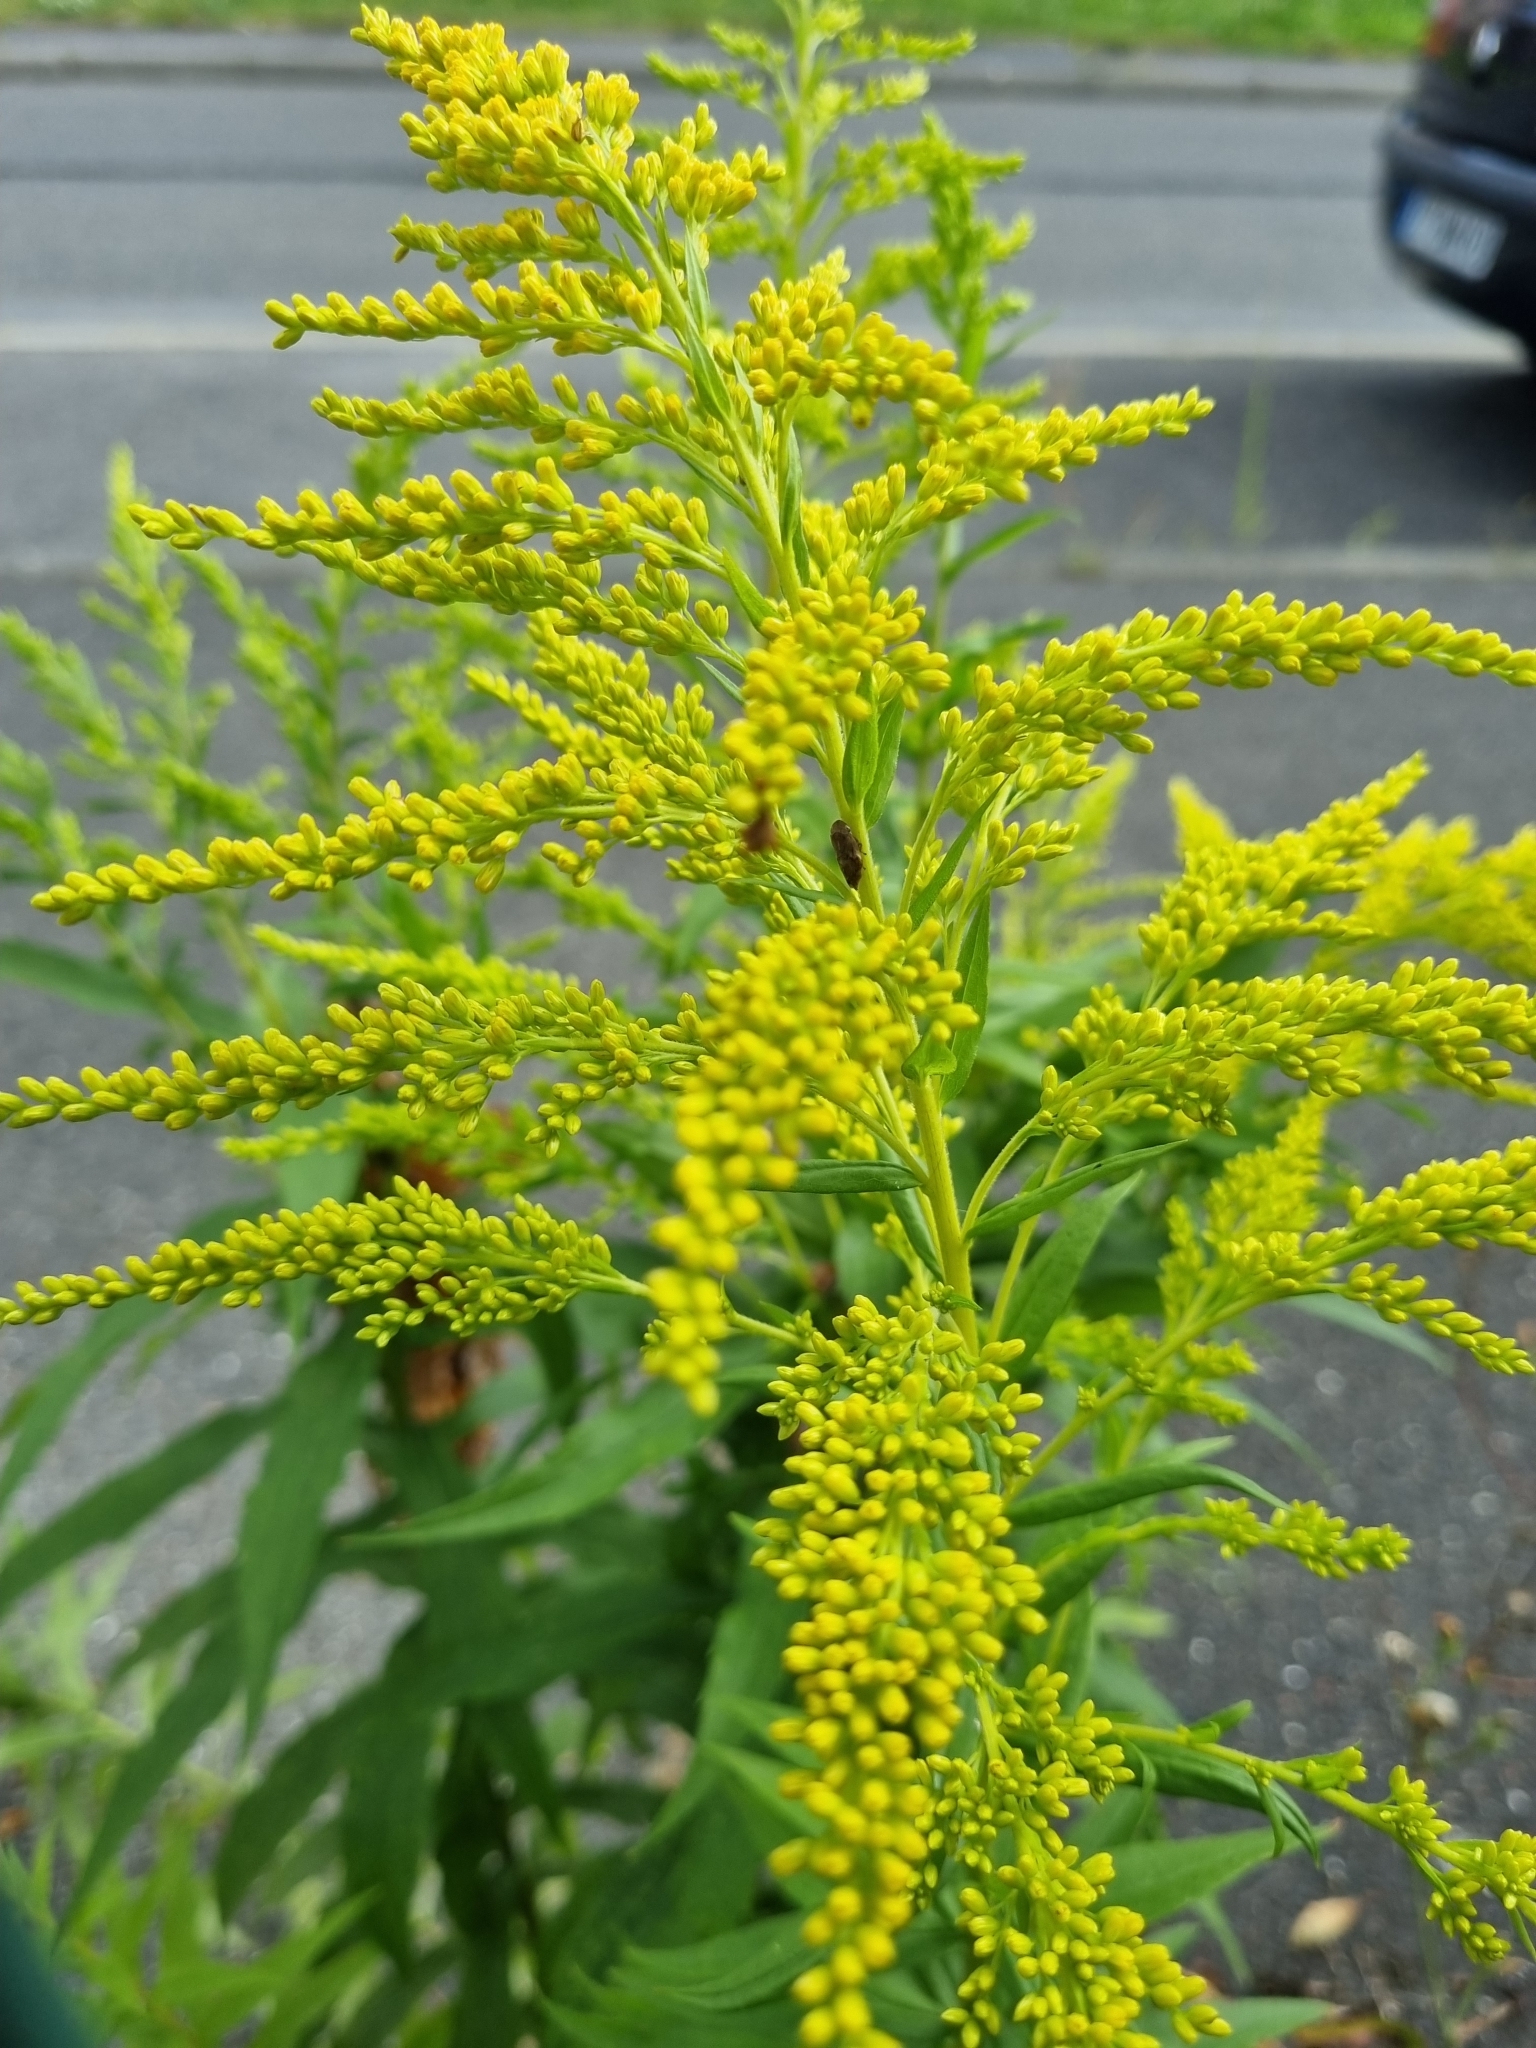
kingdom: Plantae
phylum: Tracheophyta
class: Magnoliopsida
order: Asterales
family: Asteraceae
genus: Solidago
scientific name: Solidago canadensis
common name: Canada goldenrod
